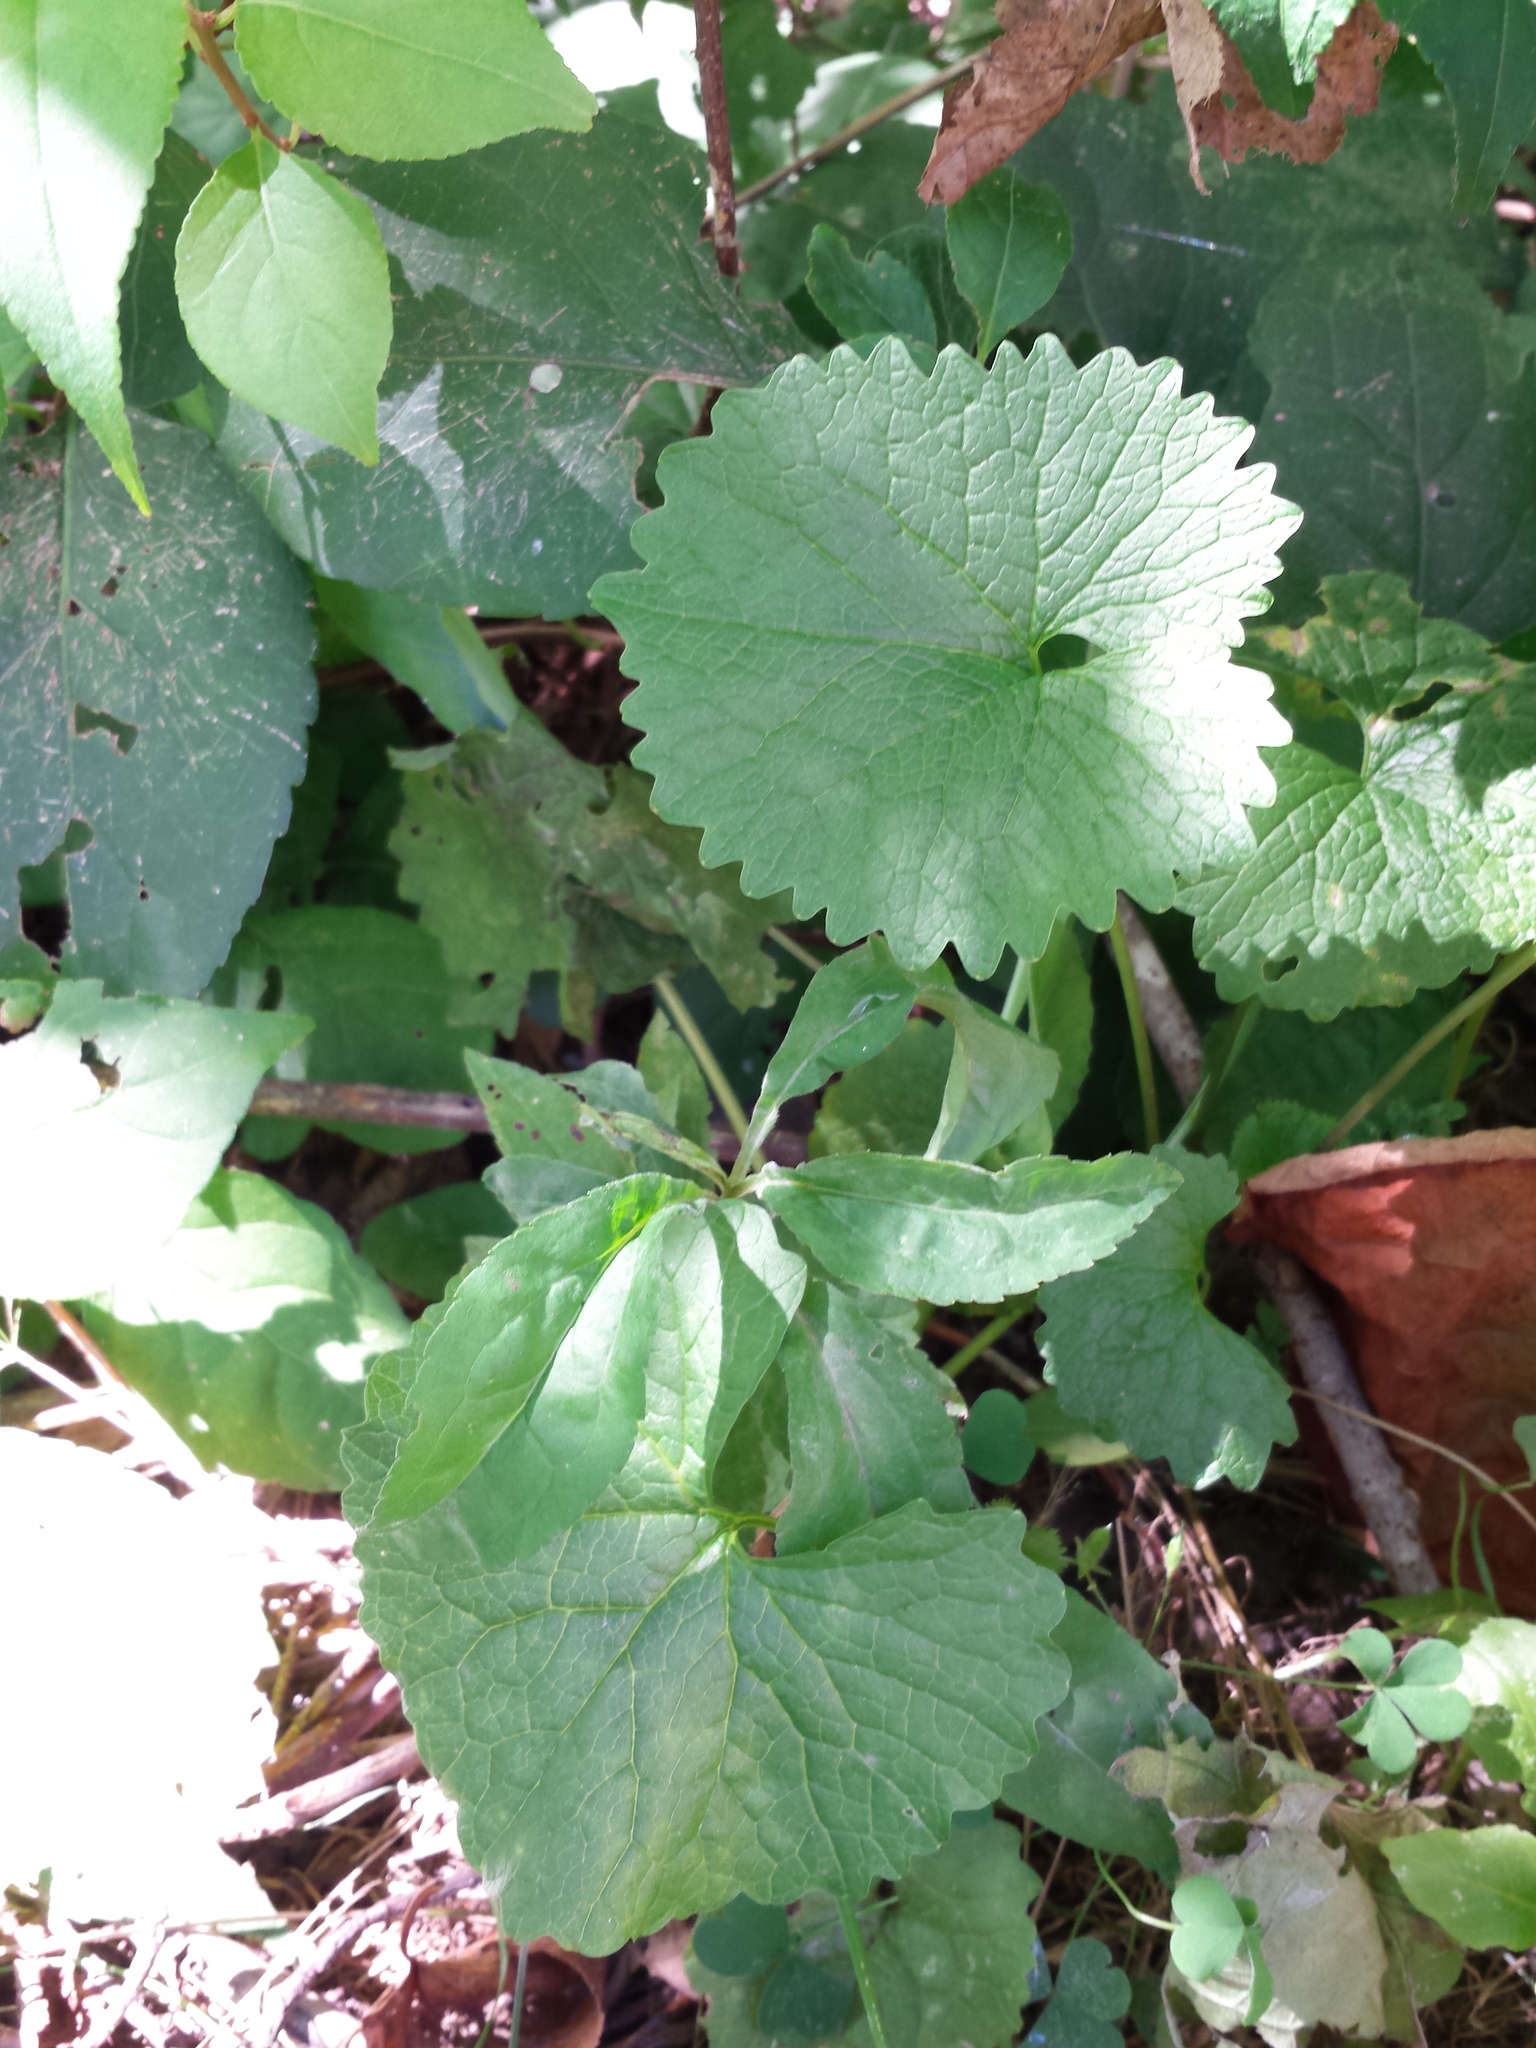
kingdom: Plantae
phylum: Tracheophyta
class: Magnoliopsida
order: Brassicales
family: Brassicaceae
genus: Alliaria
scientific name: Alliaria petiolata
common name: Garlic mustard
